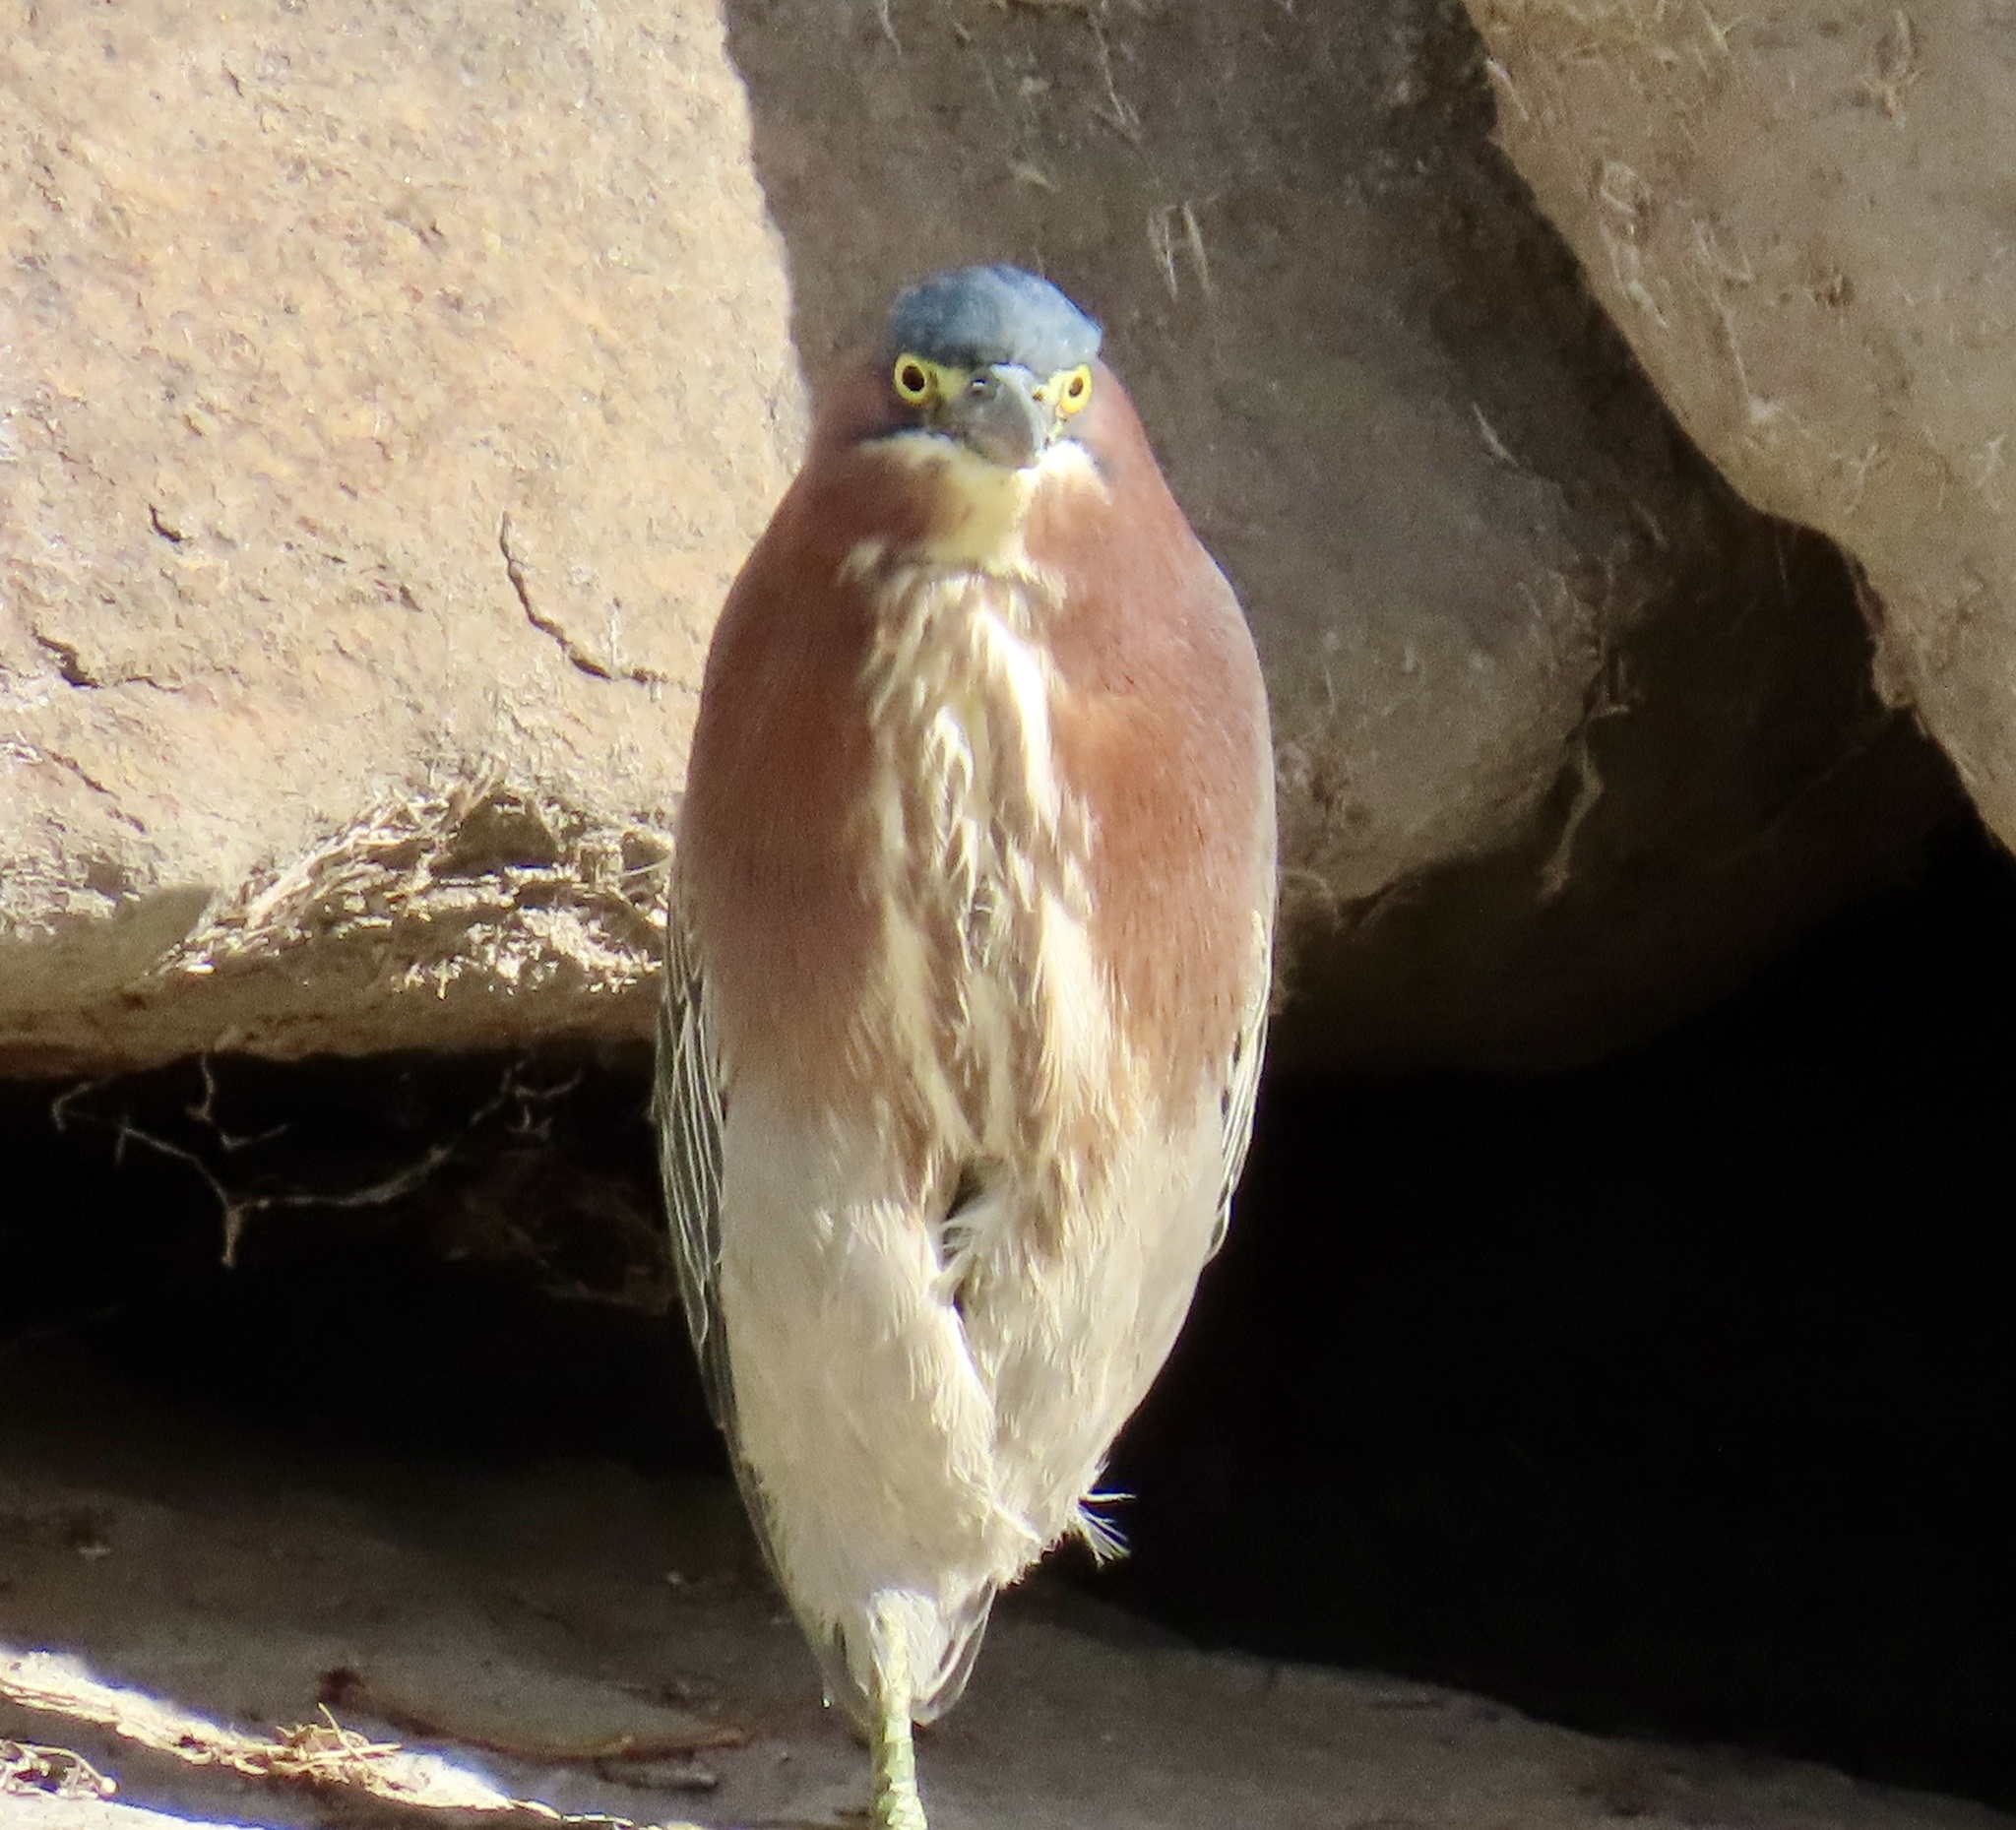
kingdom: Animalia
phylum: Chordata
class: Aves
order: Pelecaniformes
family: Ardeidae
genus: Butorides
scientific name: Butorides virescens
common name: Green heron
